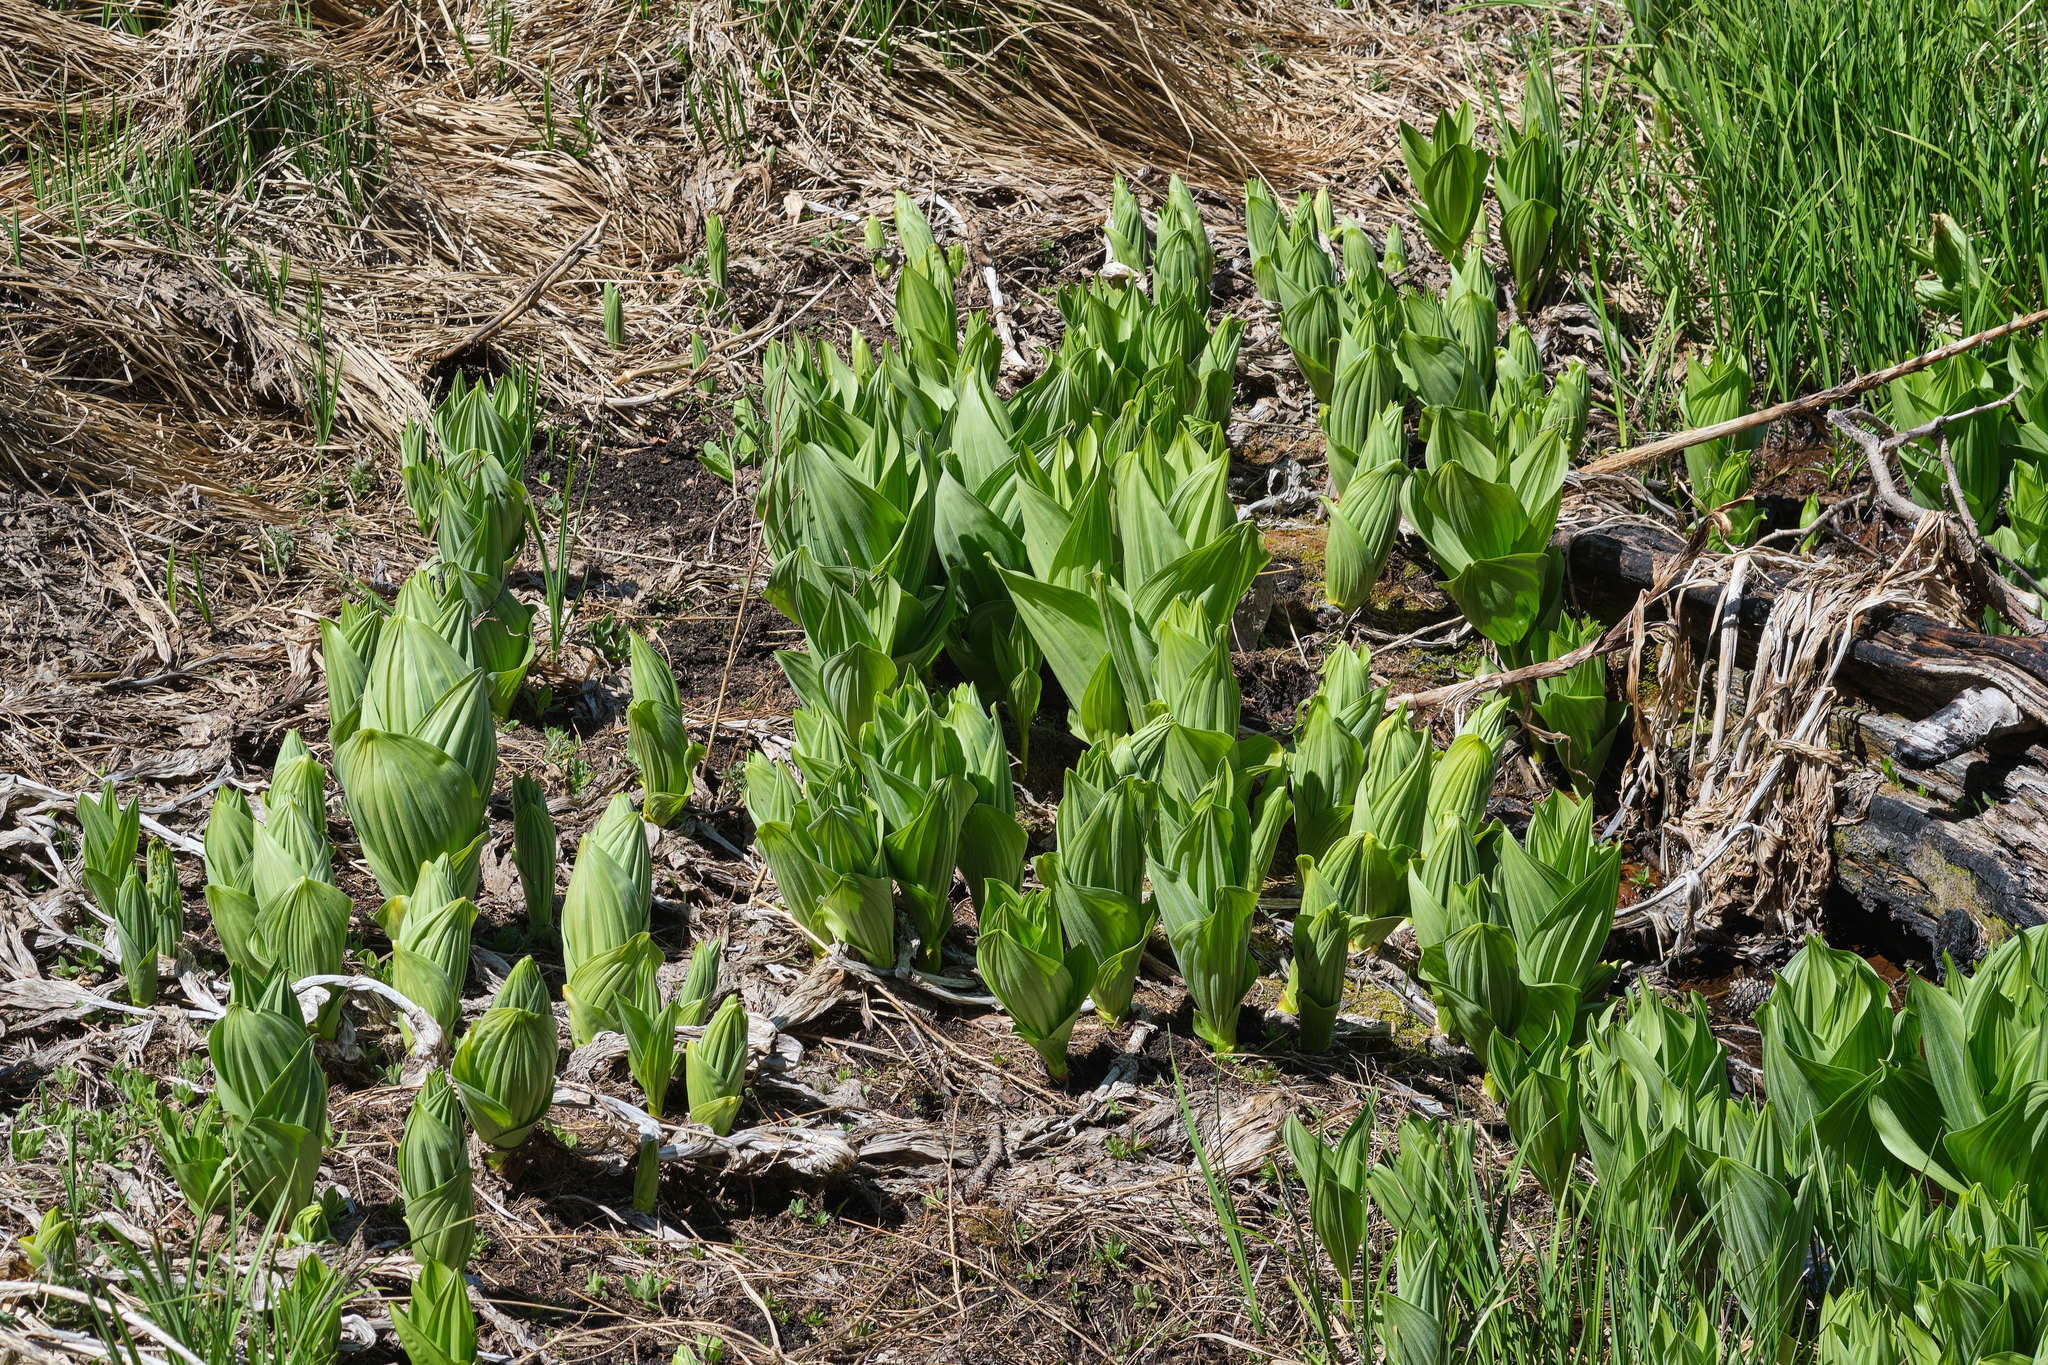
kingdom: Plantae
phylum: Tracheophyta
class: Liliopsida
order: Liliales
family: Melanthiaceae
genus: Veratrum
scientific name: Veratrum californicum
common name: California veratrum
